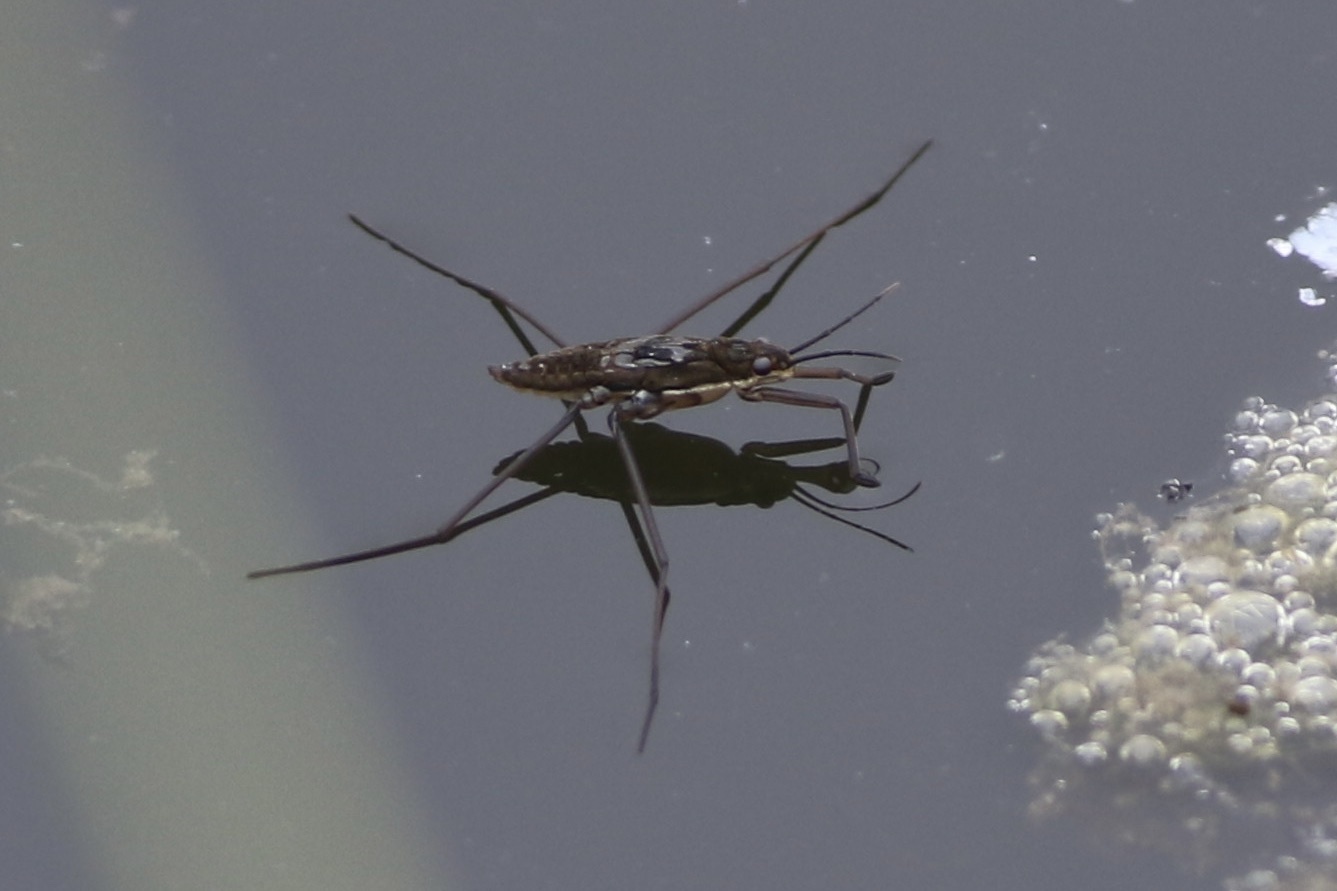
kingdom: Animalia
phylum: Arthropoda
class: Insecta
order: Hemiptera
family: Gerridae
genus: Aquarius
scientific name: Aquarius remigis
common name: Common water strider
